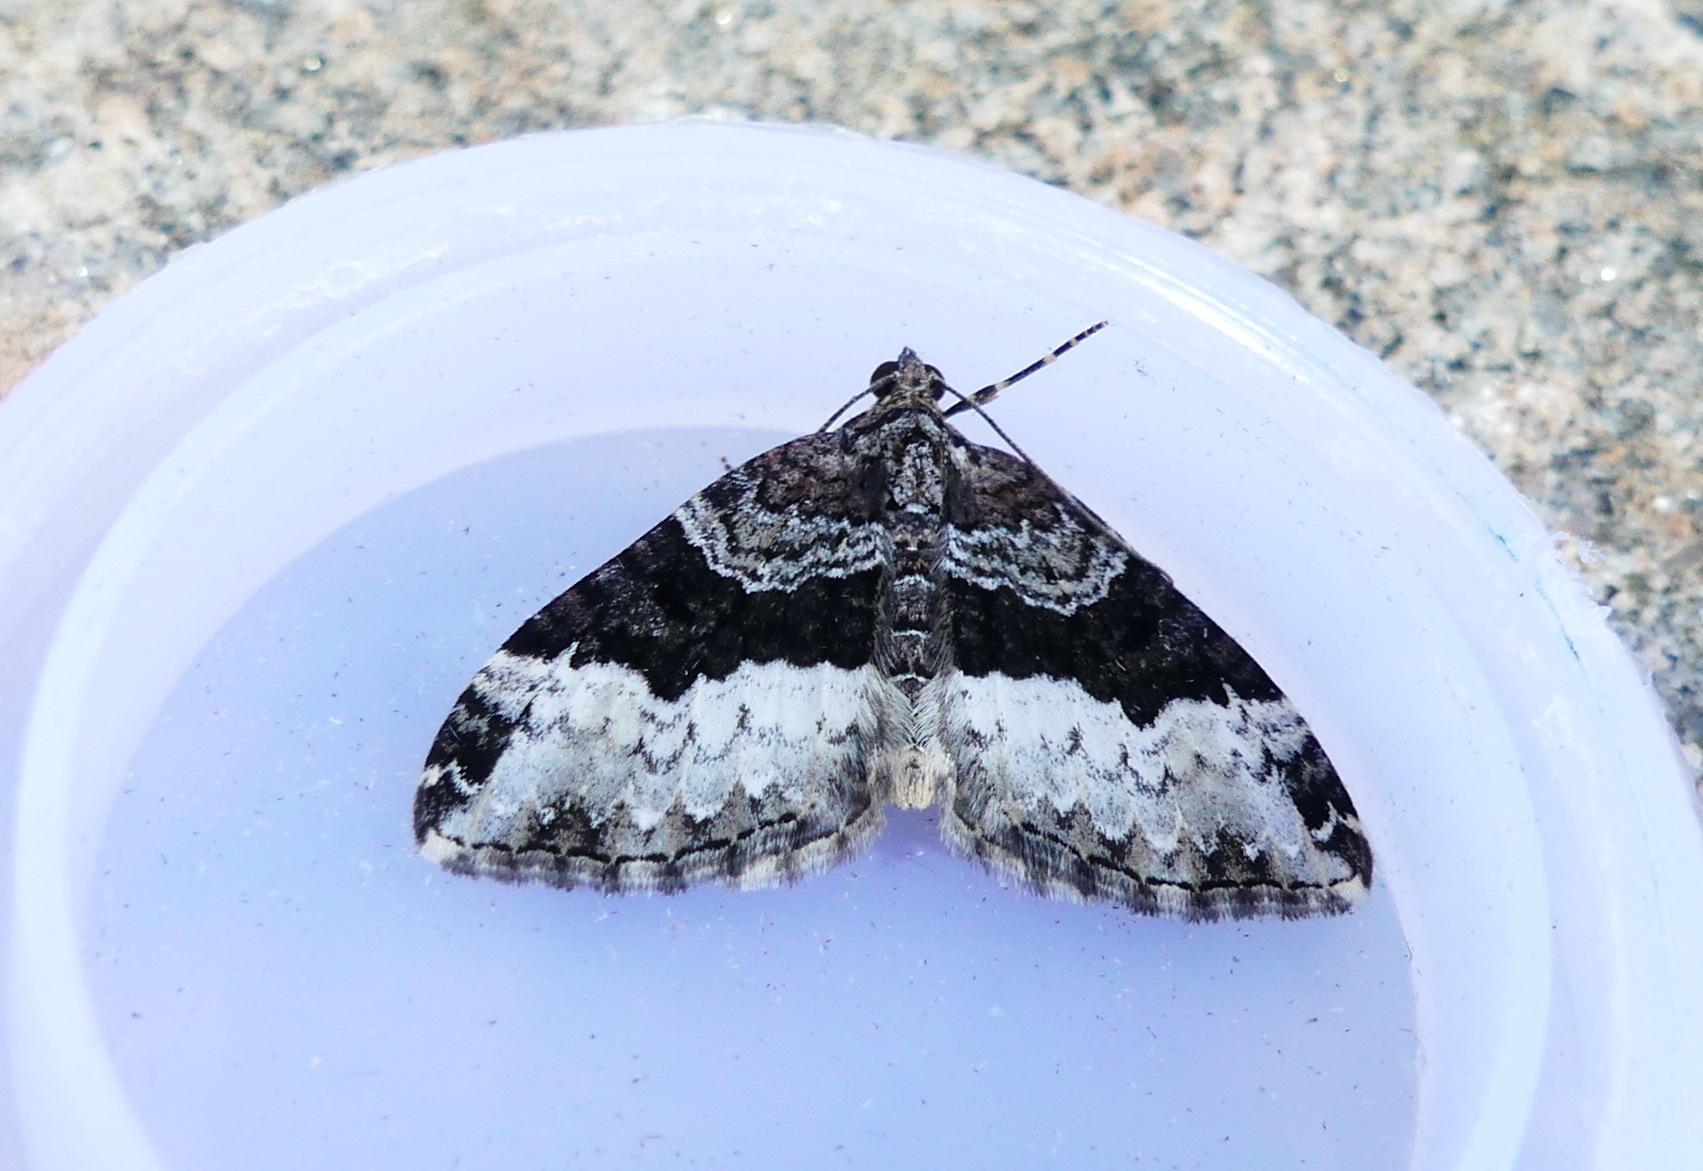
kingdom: Animalia
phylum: Arthropoda
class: Insecta
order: Lepidoptera
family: Geometridae
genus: Euphyia
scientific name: Euphyia intermediata
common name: Sharp-angled carpet
